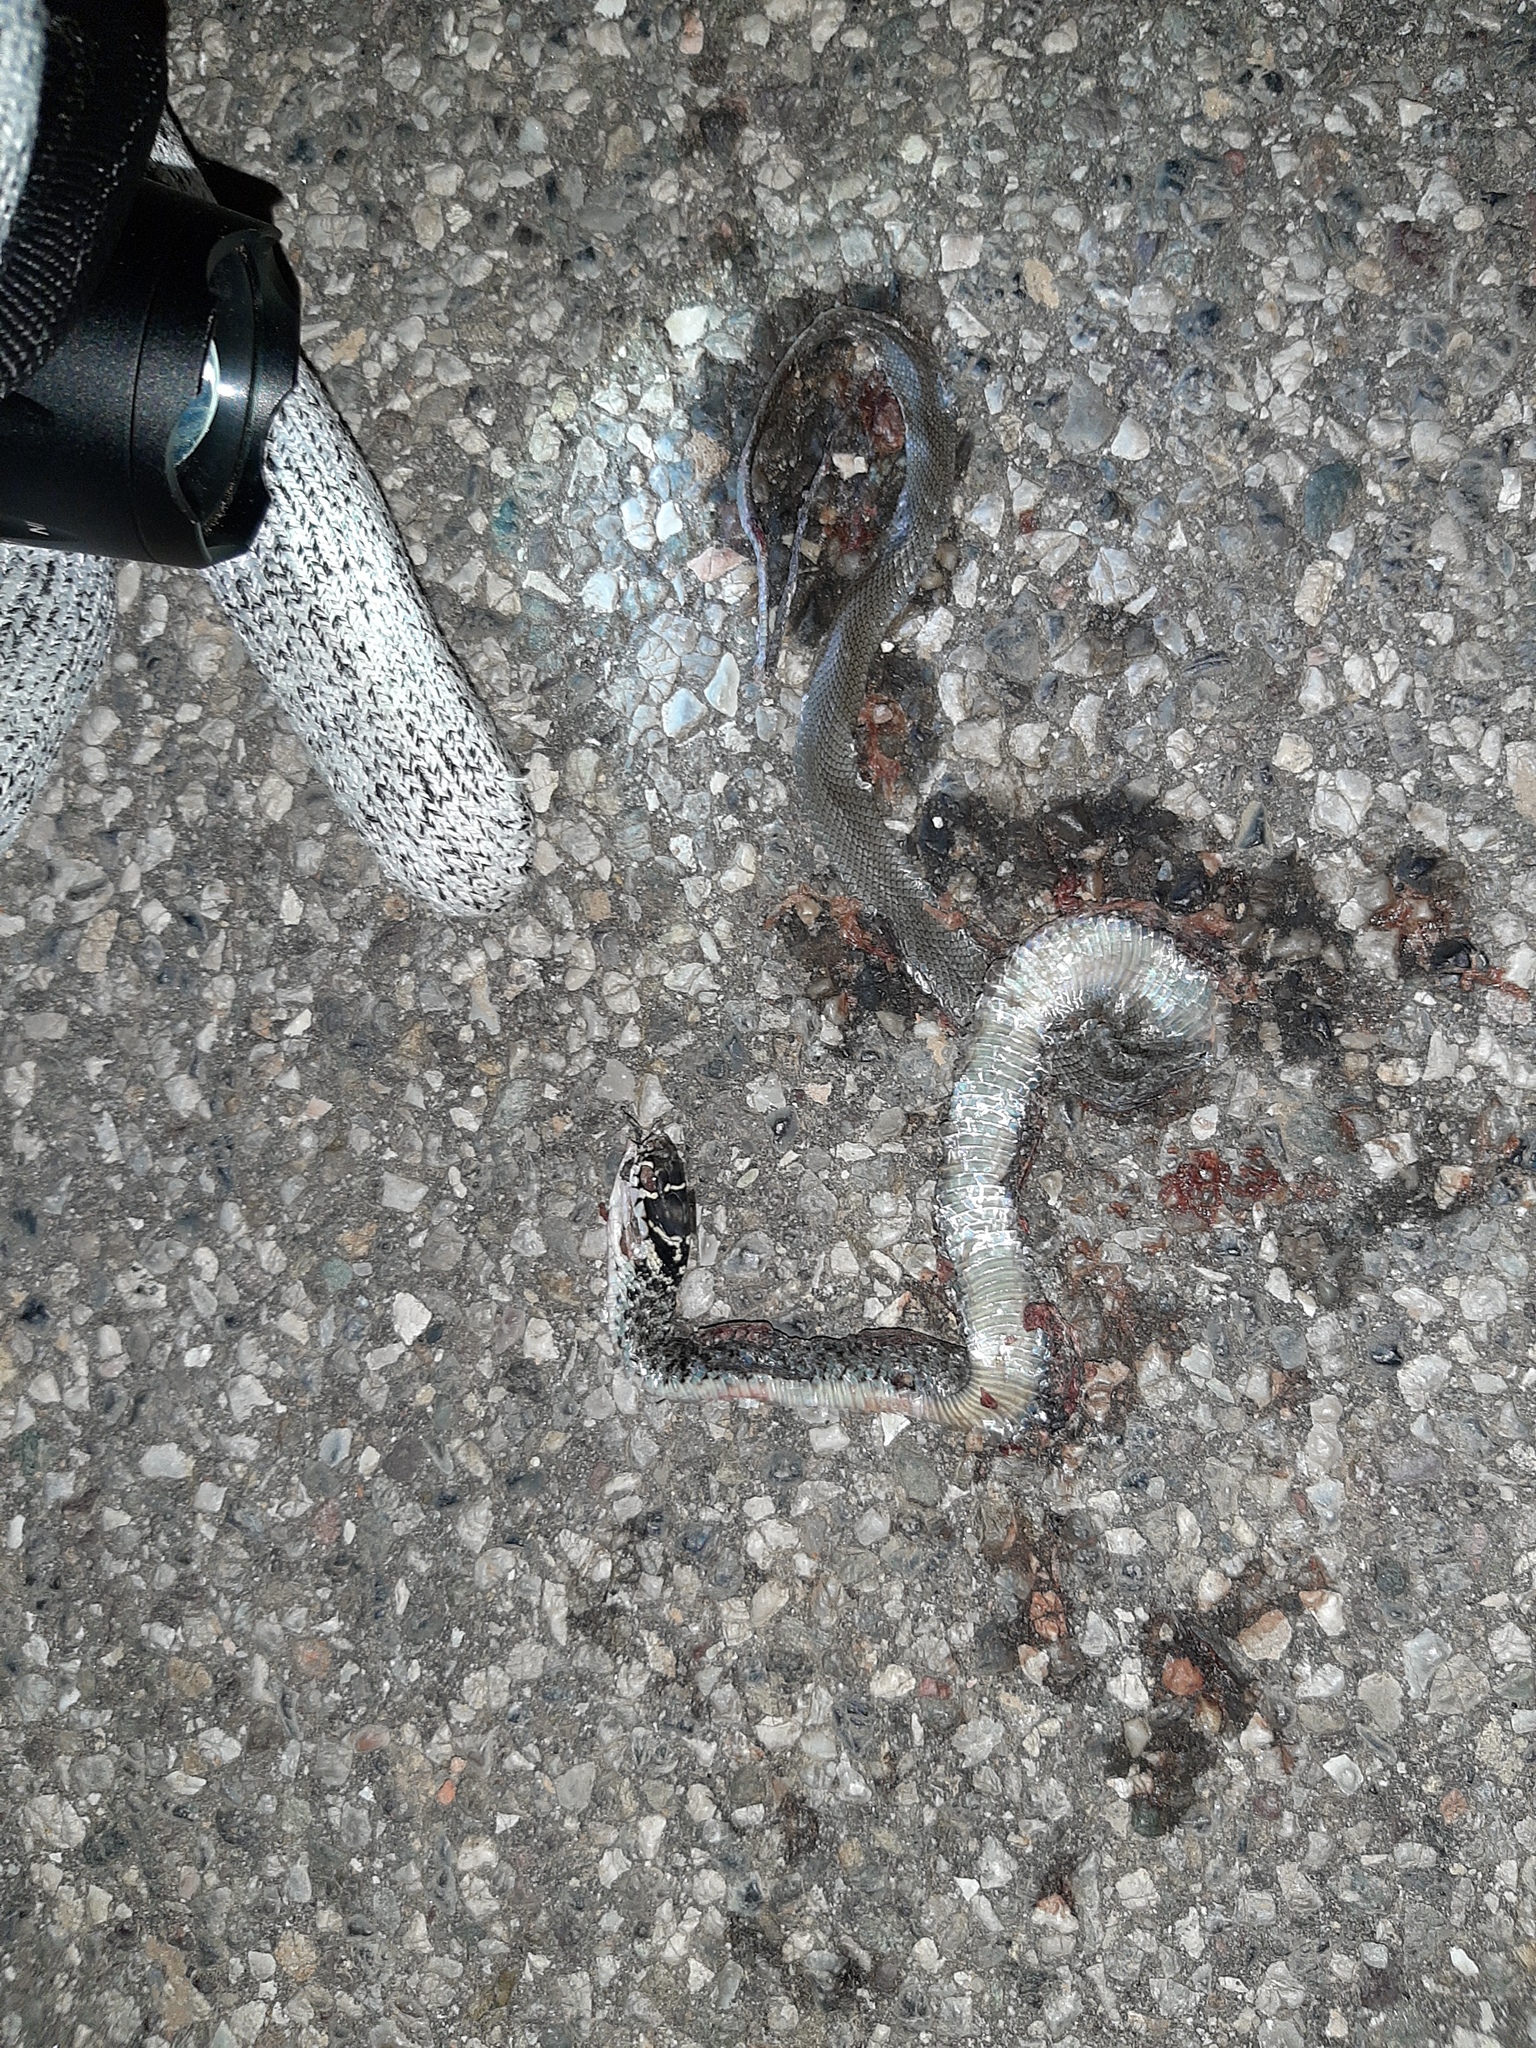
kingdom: Animalia
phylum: Chordata
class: Squamata
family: Colubridae
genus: Hierophis
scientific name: Hierophis viridiflavus
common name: Green whip snake
